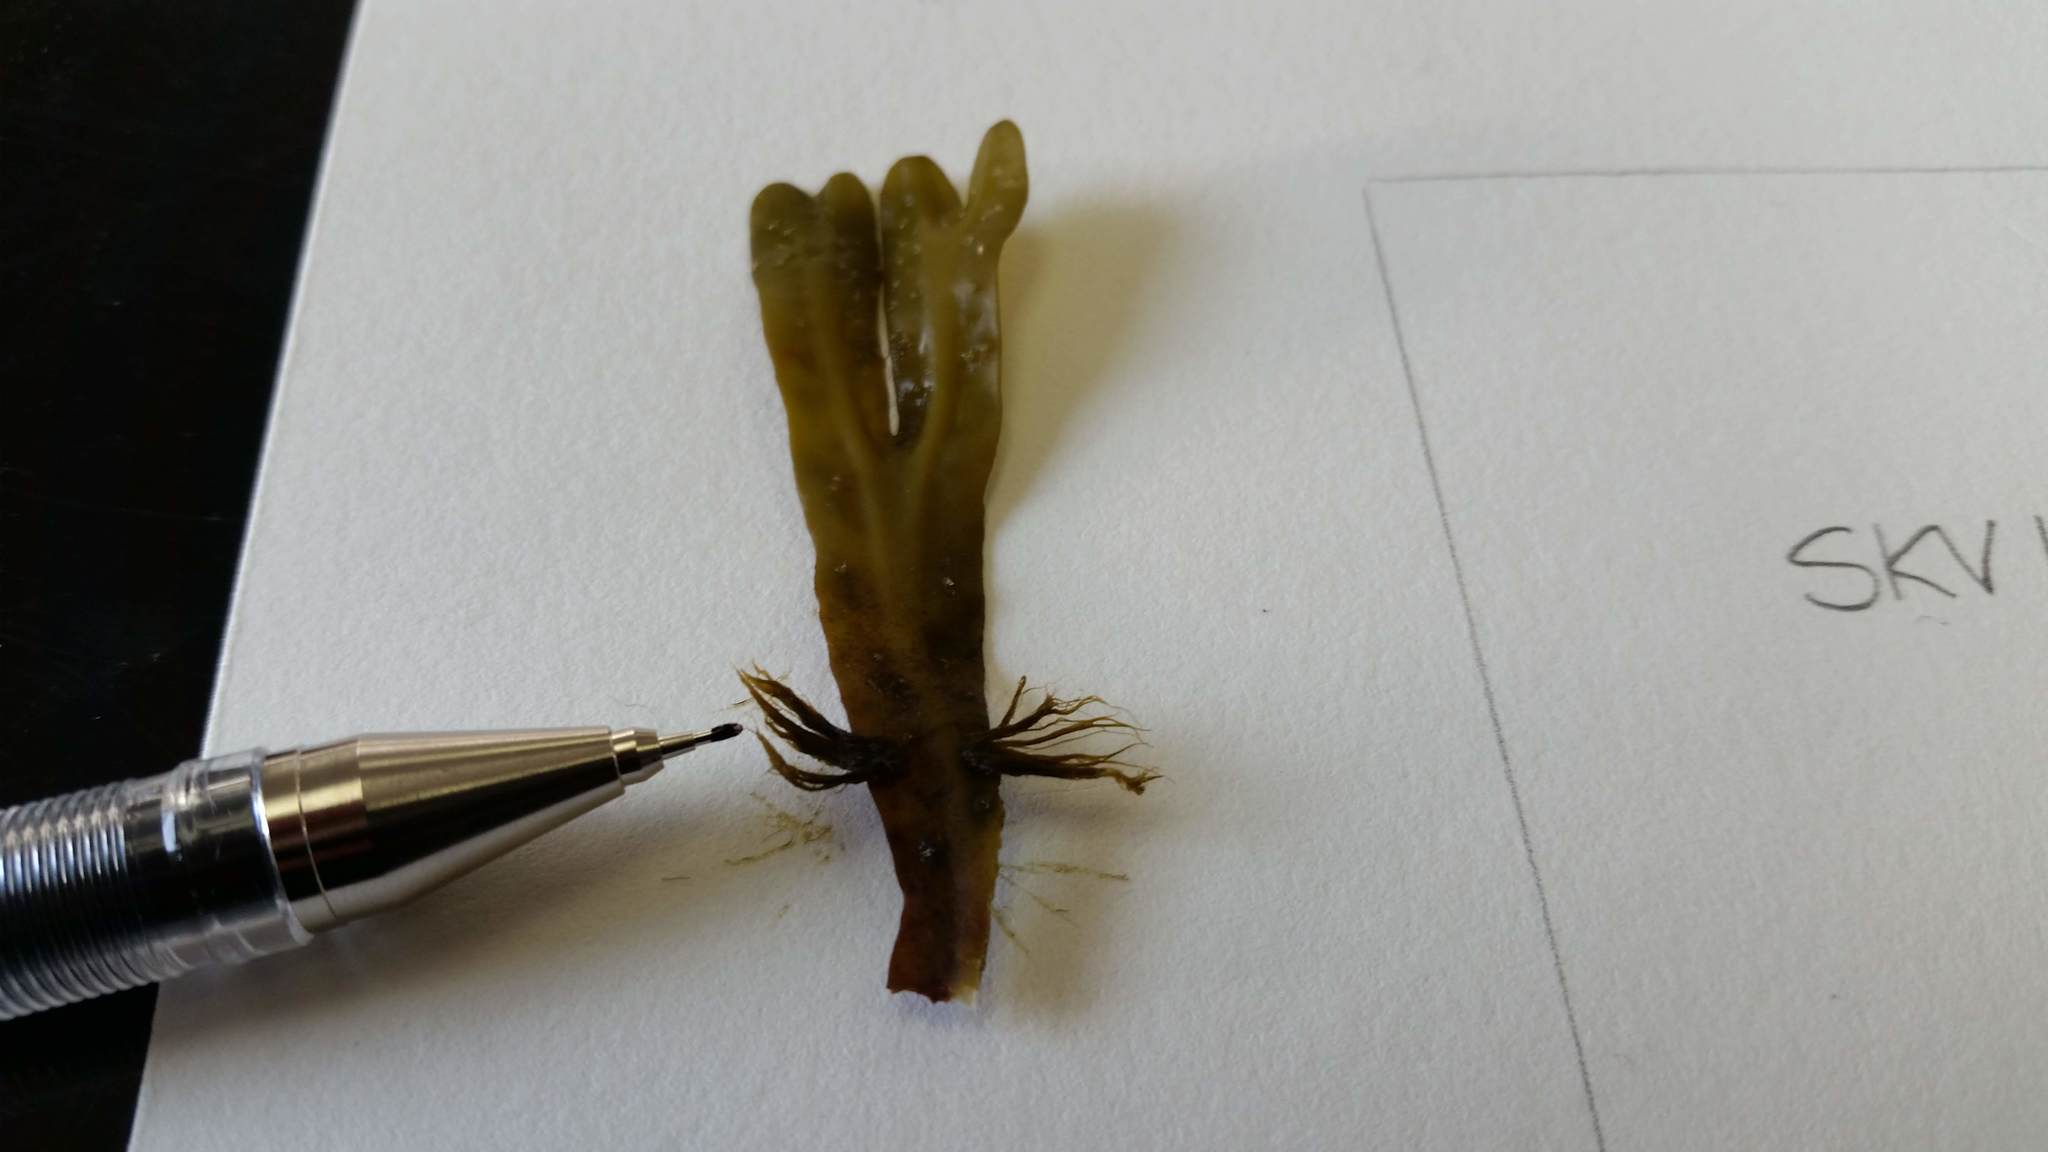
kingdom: Chromista
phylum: Ochrophyta
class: Phaeophyceae
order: Ectocarpales
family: Chordariaceae
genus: Elachista
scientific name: Elachista fucicola
